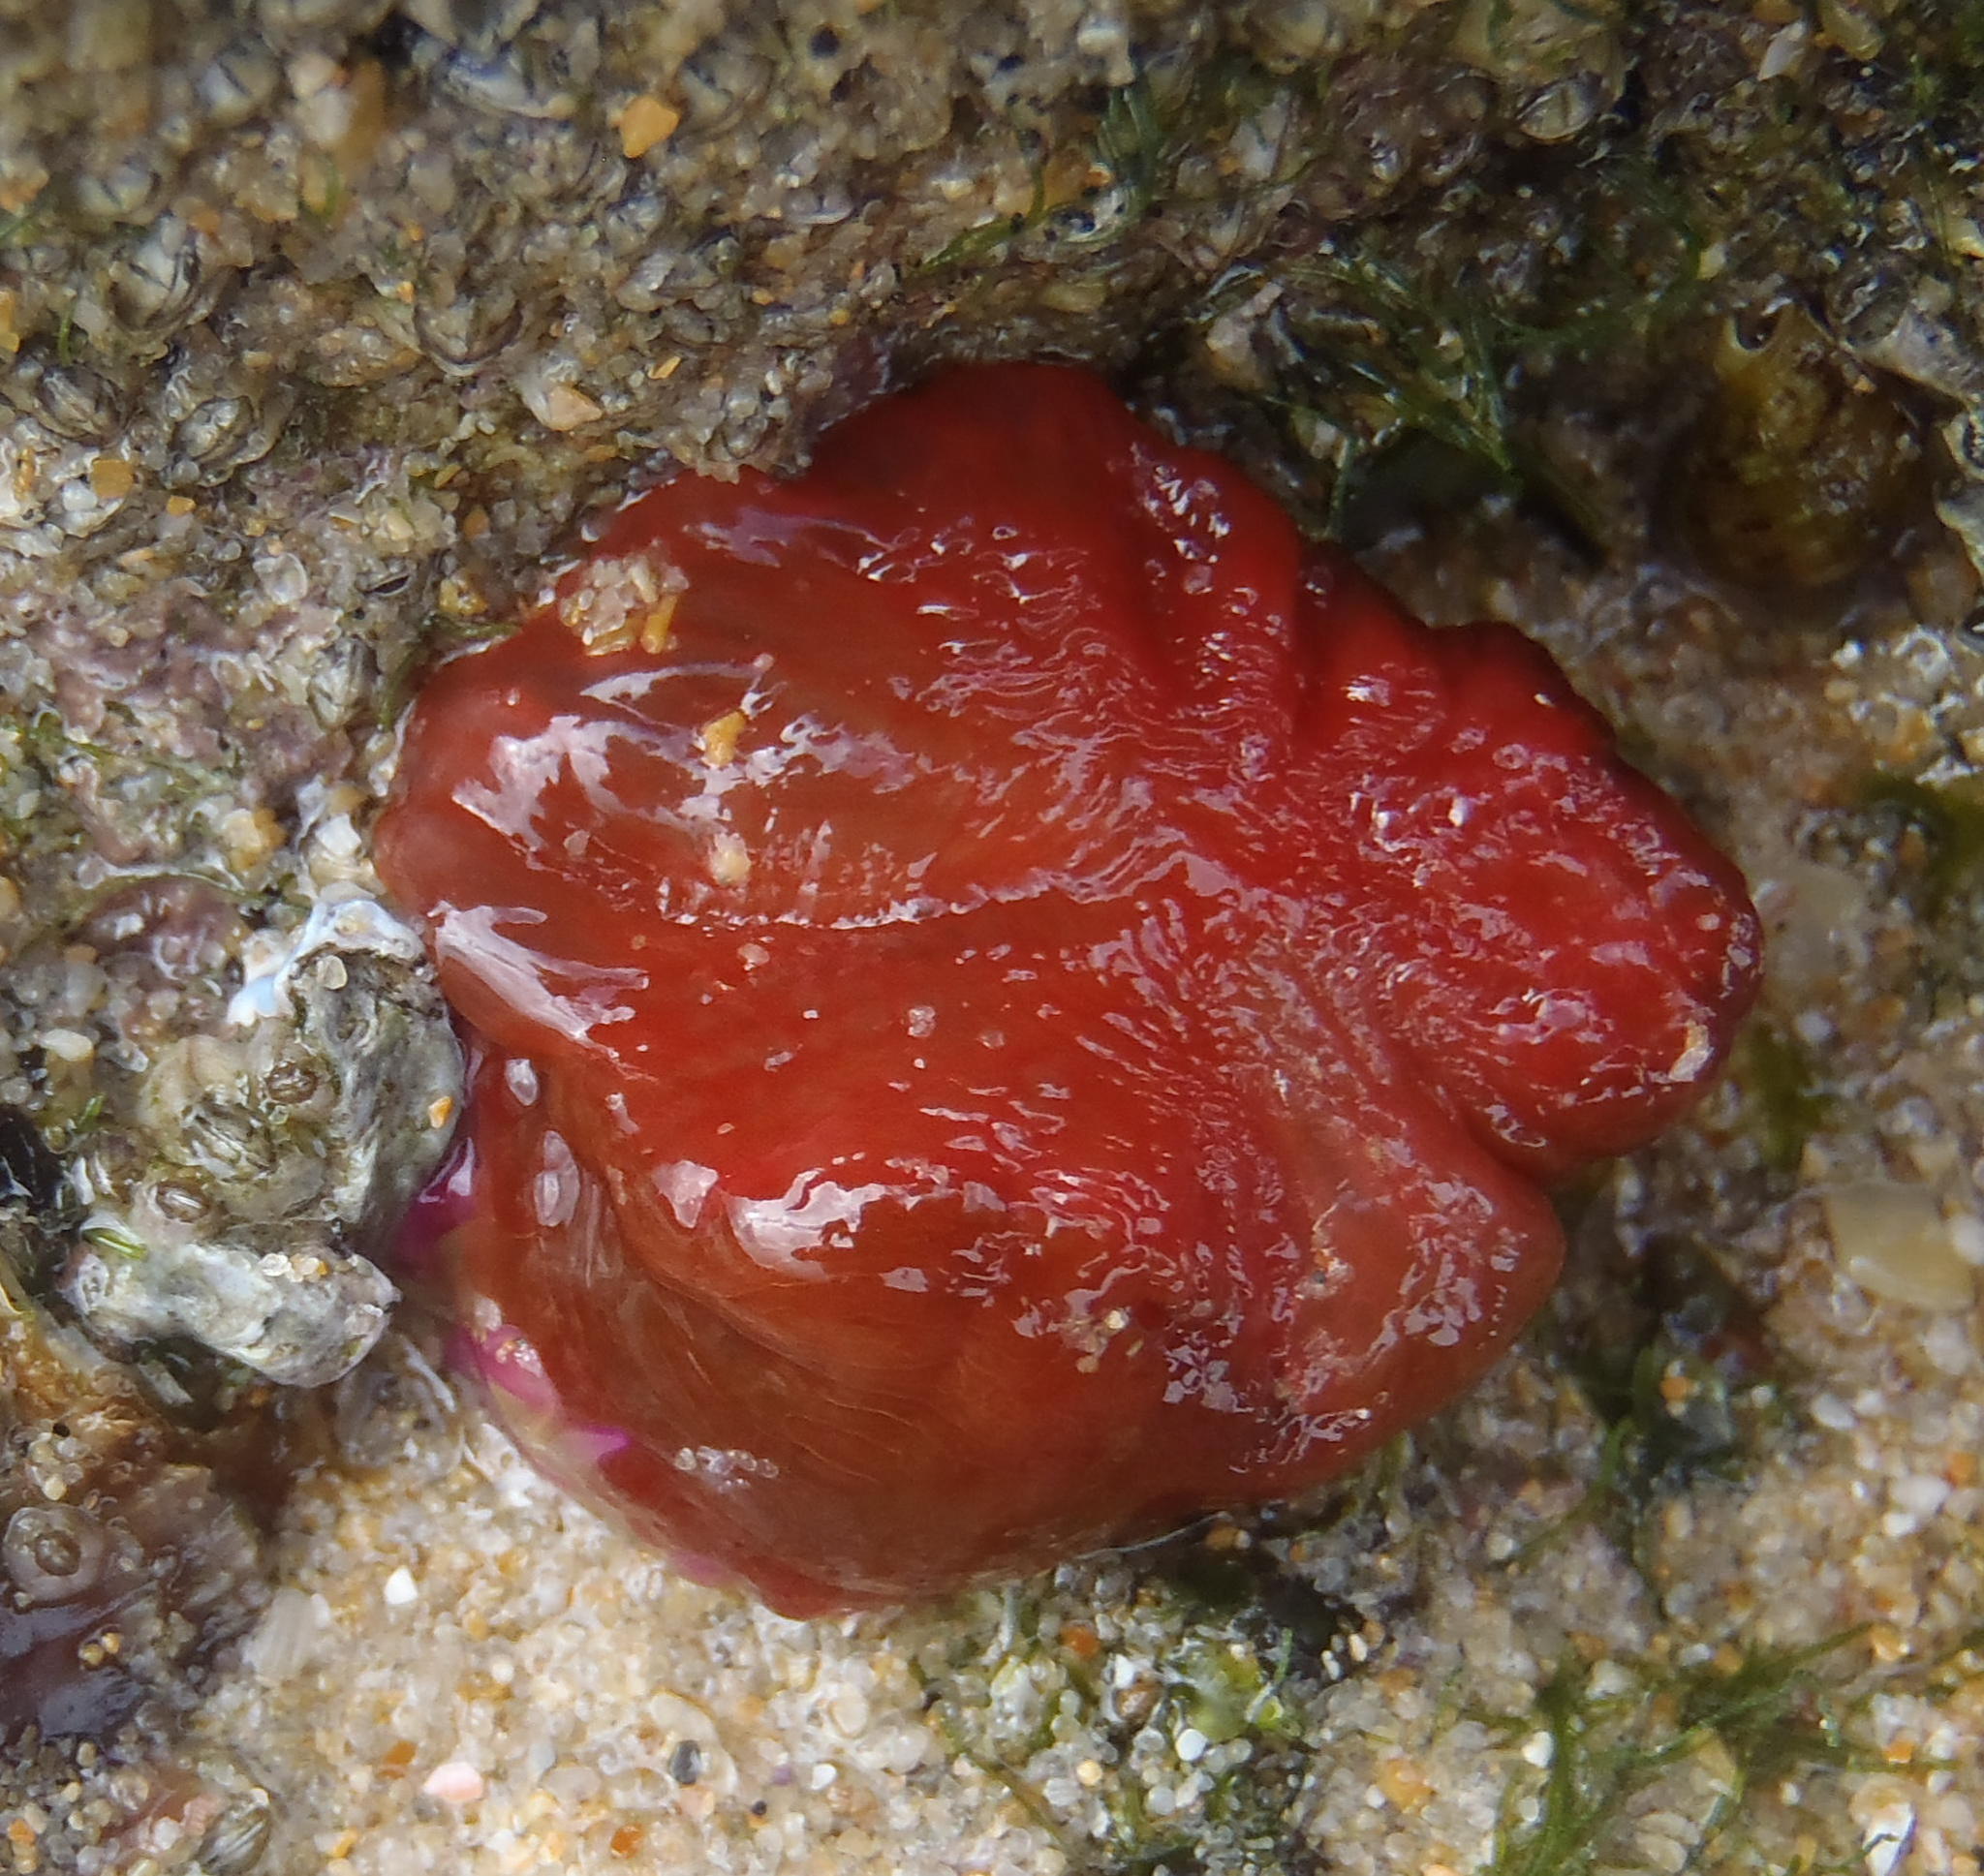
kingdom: Animalia
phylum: Cnidaria
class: Anthozoa
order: Actiniaria
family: Actiniidae
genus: Pseudactinia
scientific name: Pseudactinia flagellifera
